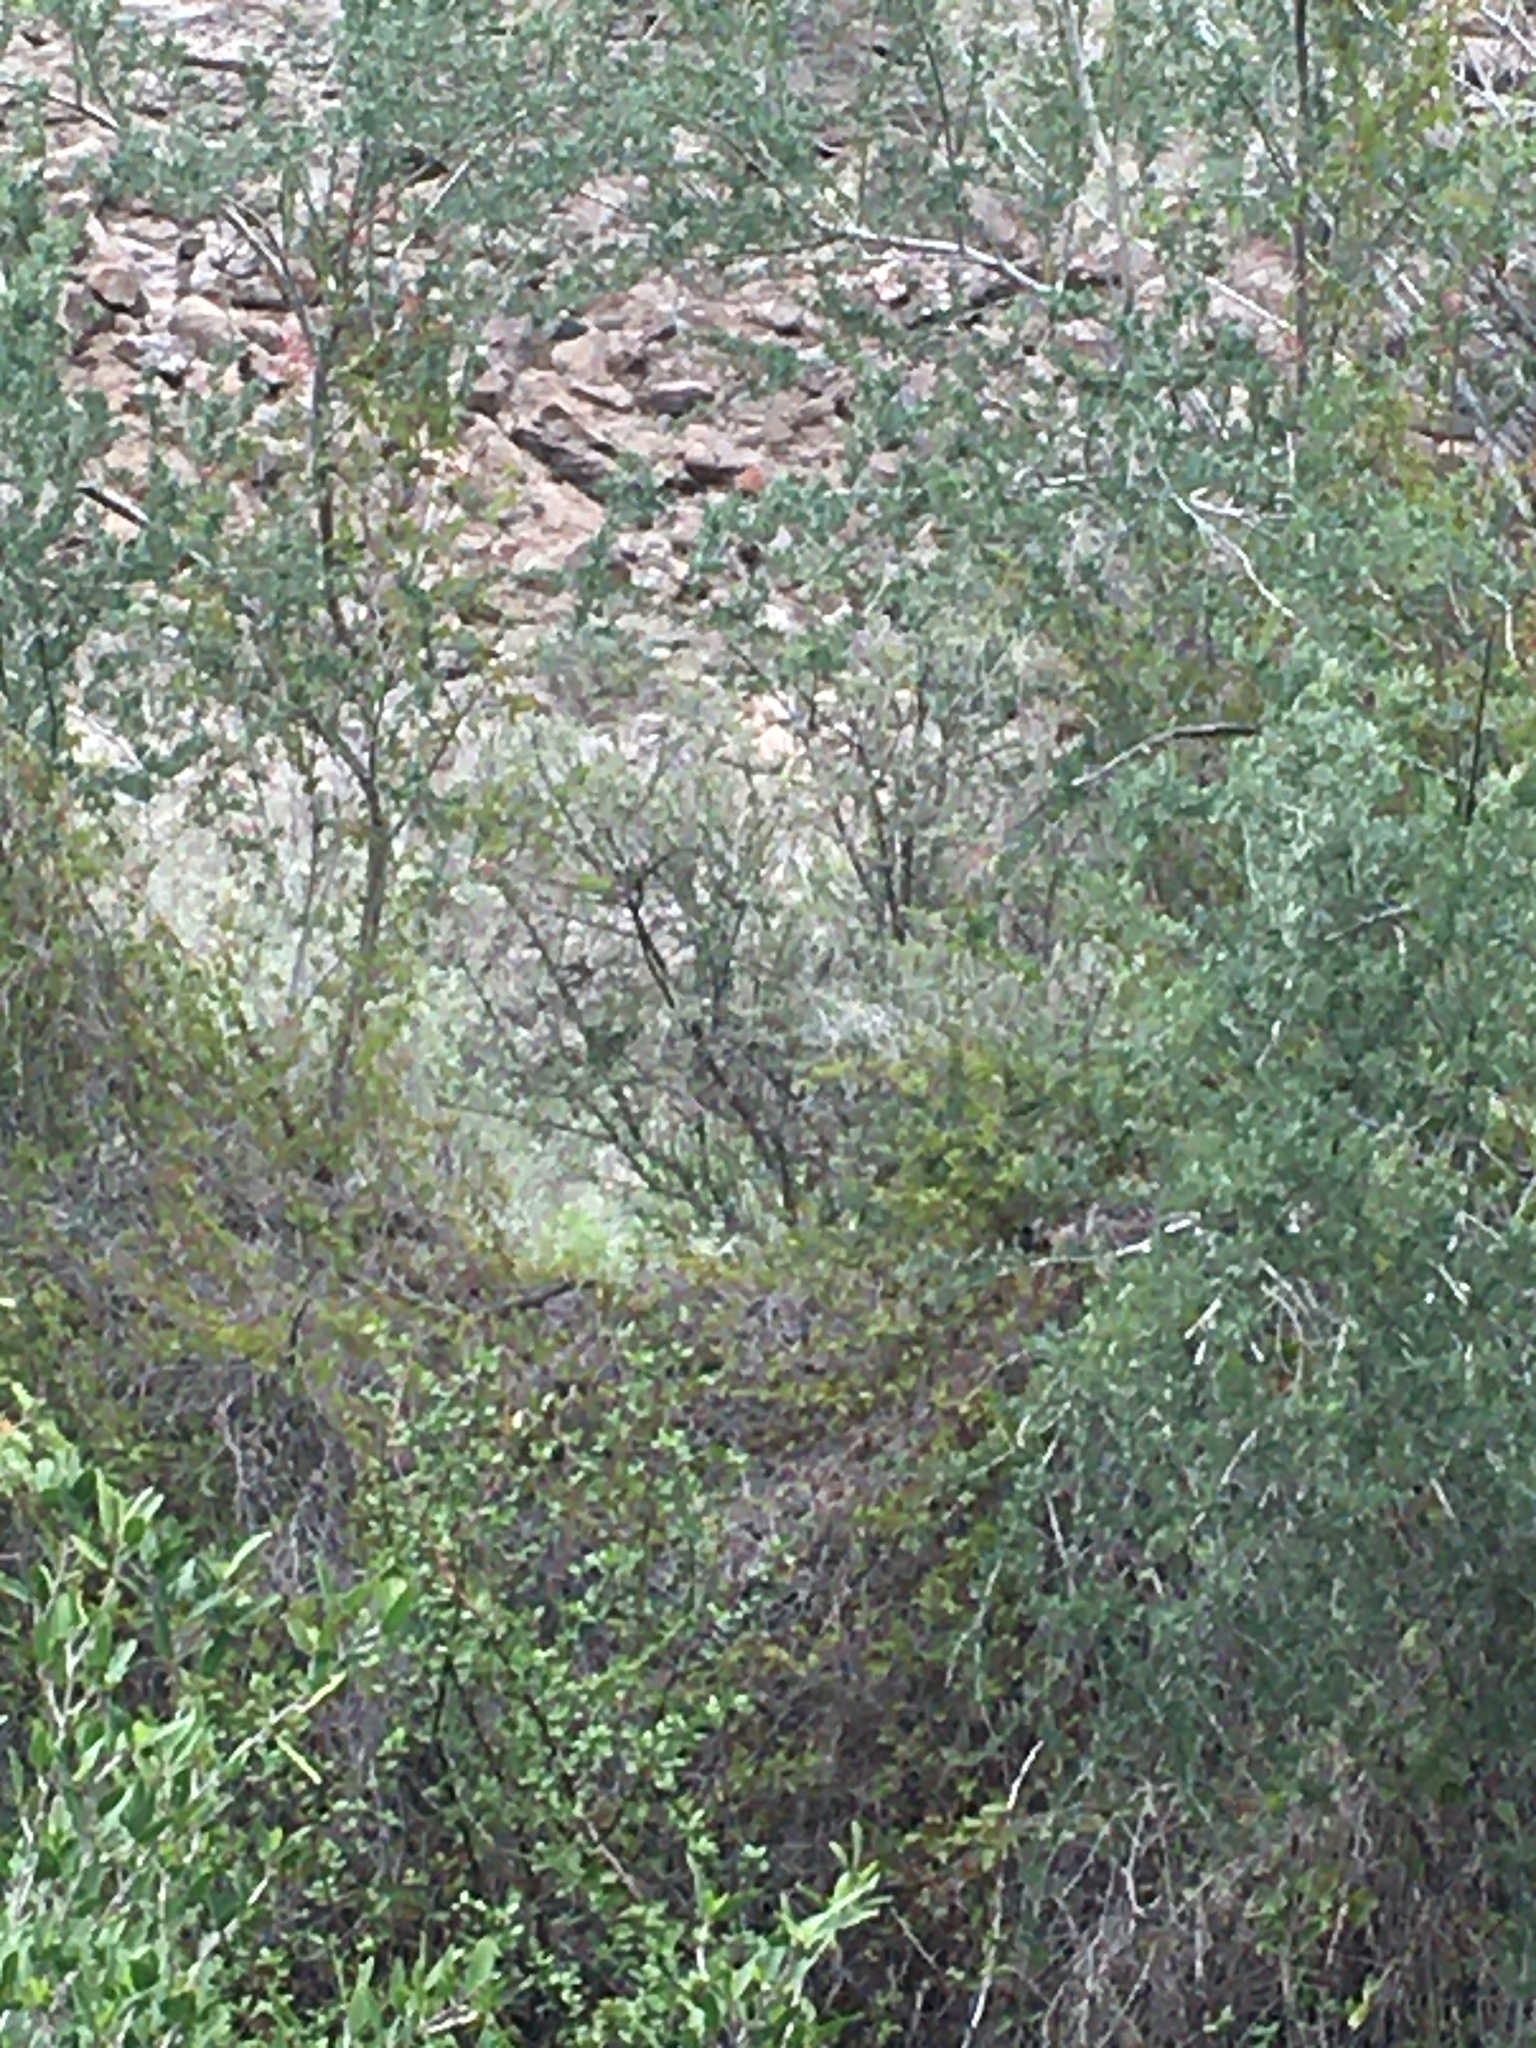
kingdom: Animalia
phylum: Chordata
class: Aves
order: Passeriformes
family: Passerellidae
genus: Pipilo
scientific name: Pipilo chlorurus
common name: Green-tailed towhee
